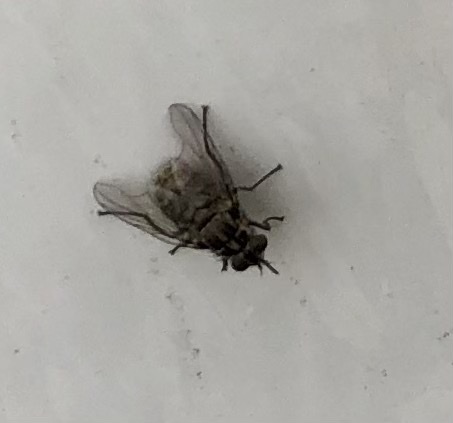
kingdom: Animalia
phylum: Arthropoda
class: Insecta
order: Diptera
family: Muscidae
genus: Stomoxys
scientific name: Stomoxys calcitrans
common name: Stable fly
